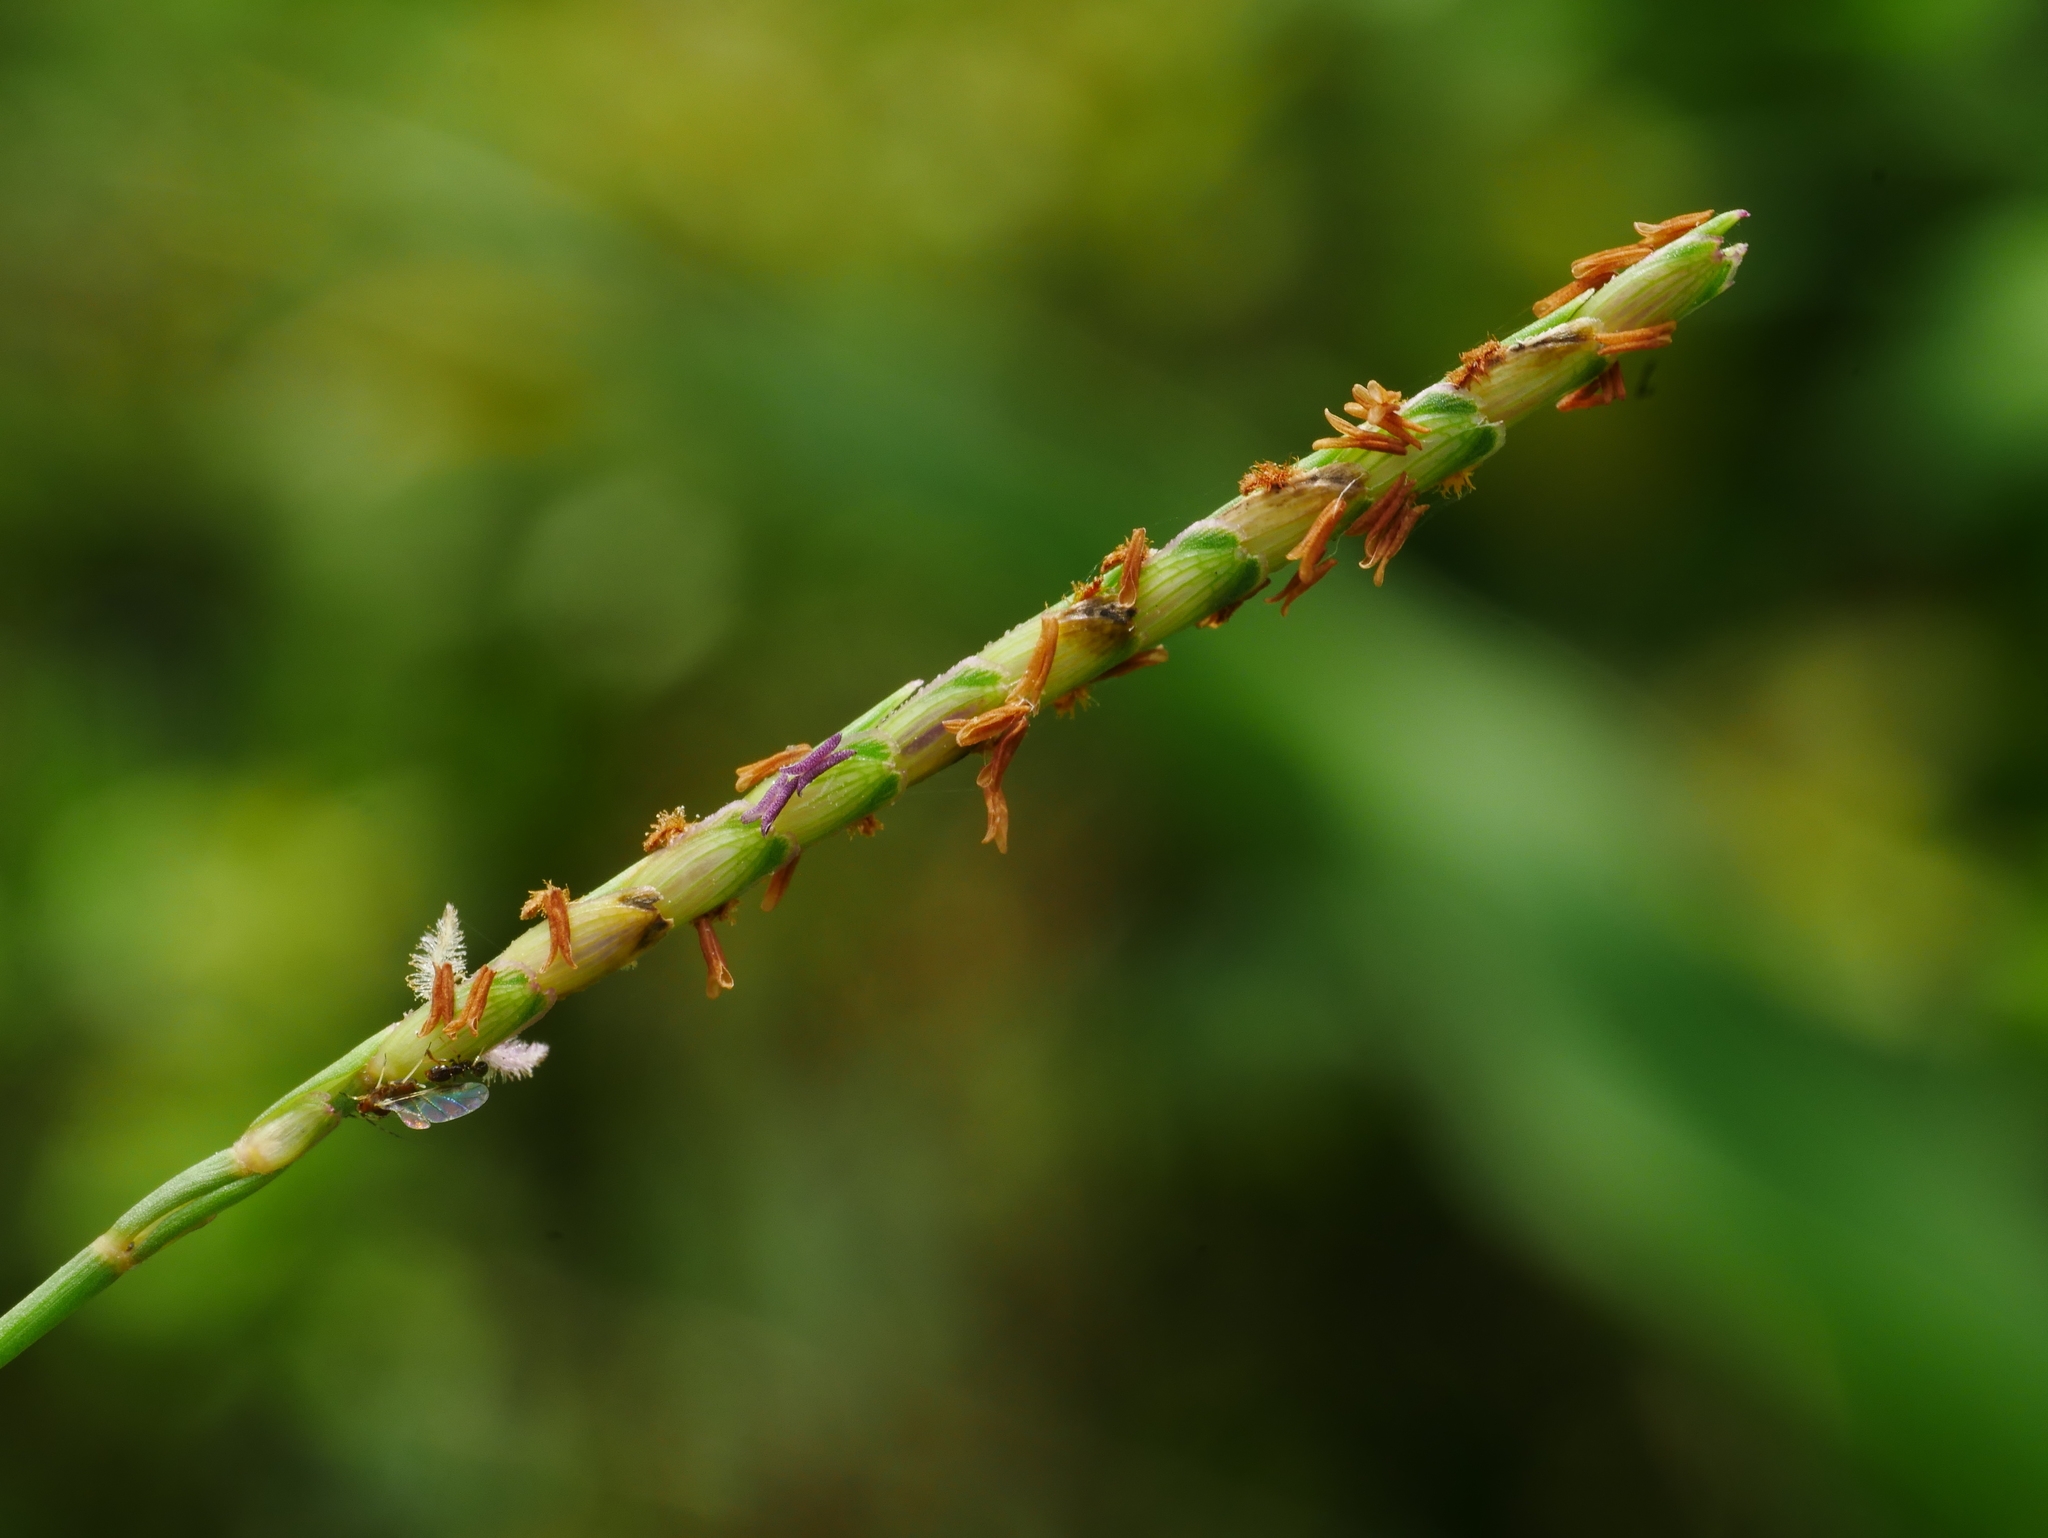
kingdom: Plantae
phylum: Tracheophyta
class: Liliopsida
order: Poales
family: Poaceae
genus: Eremochloa
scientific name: Eremochloa ophiuroides
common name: Centipede grass
